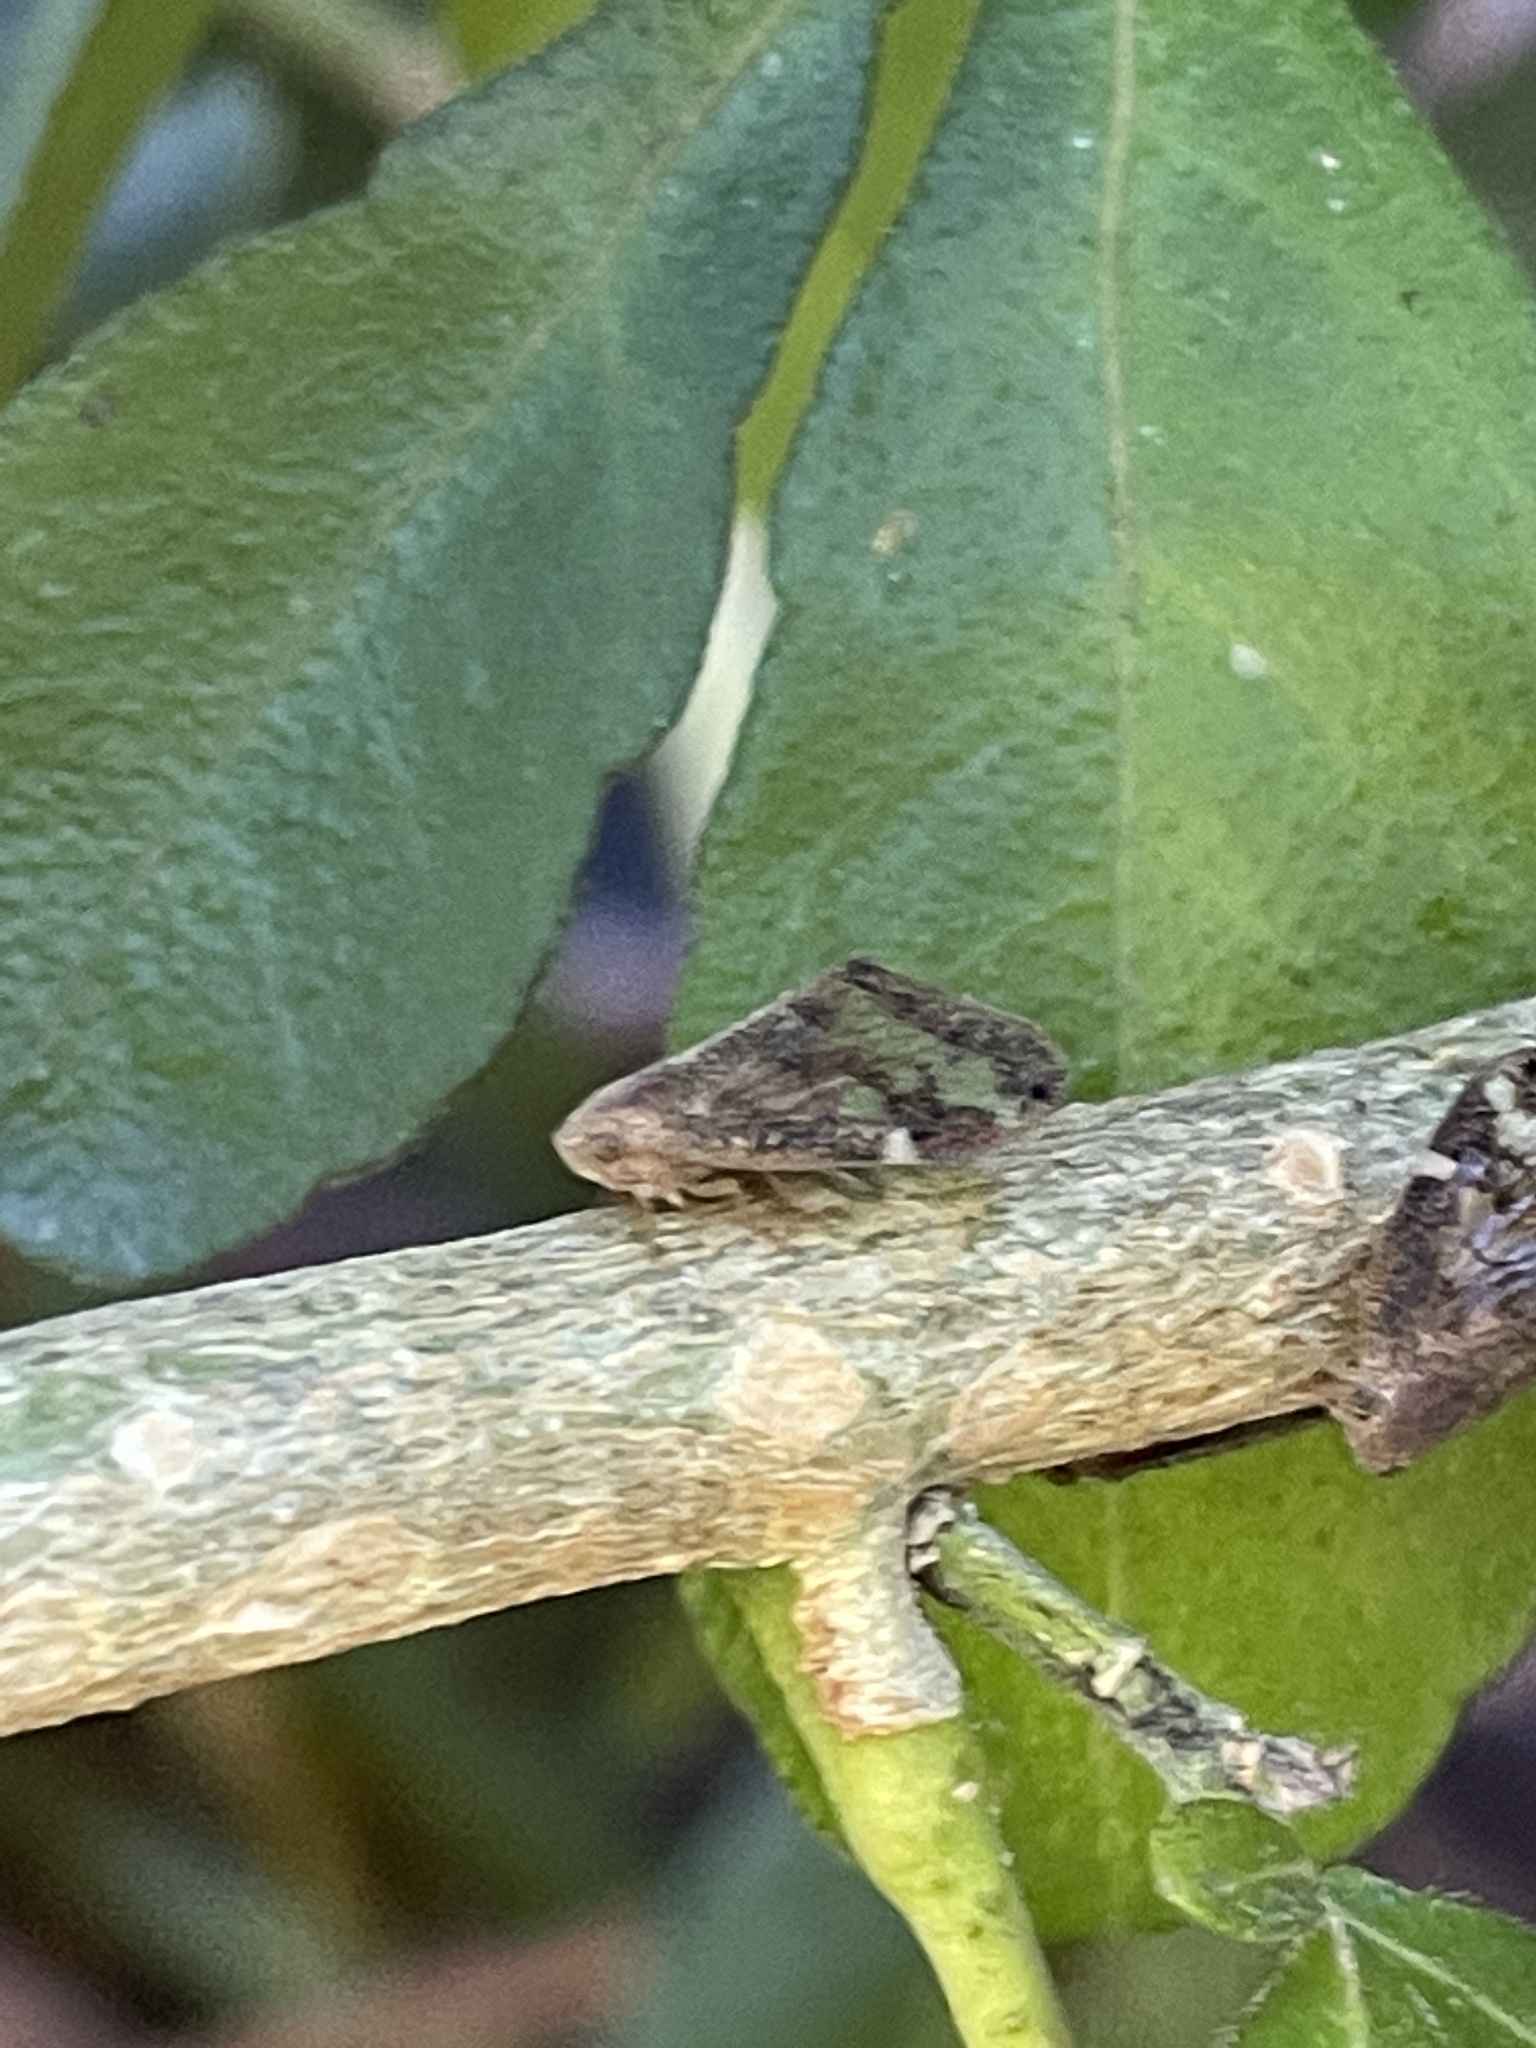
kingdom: Animalia
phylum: Arthropoda
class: Insecta
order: Hemiptera
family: Ricaniidae
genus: Scolypopa
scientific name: Scolypopa australis
